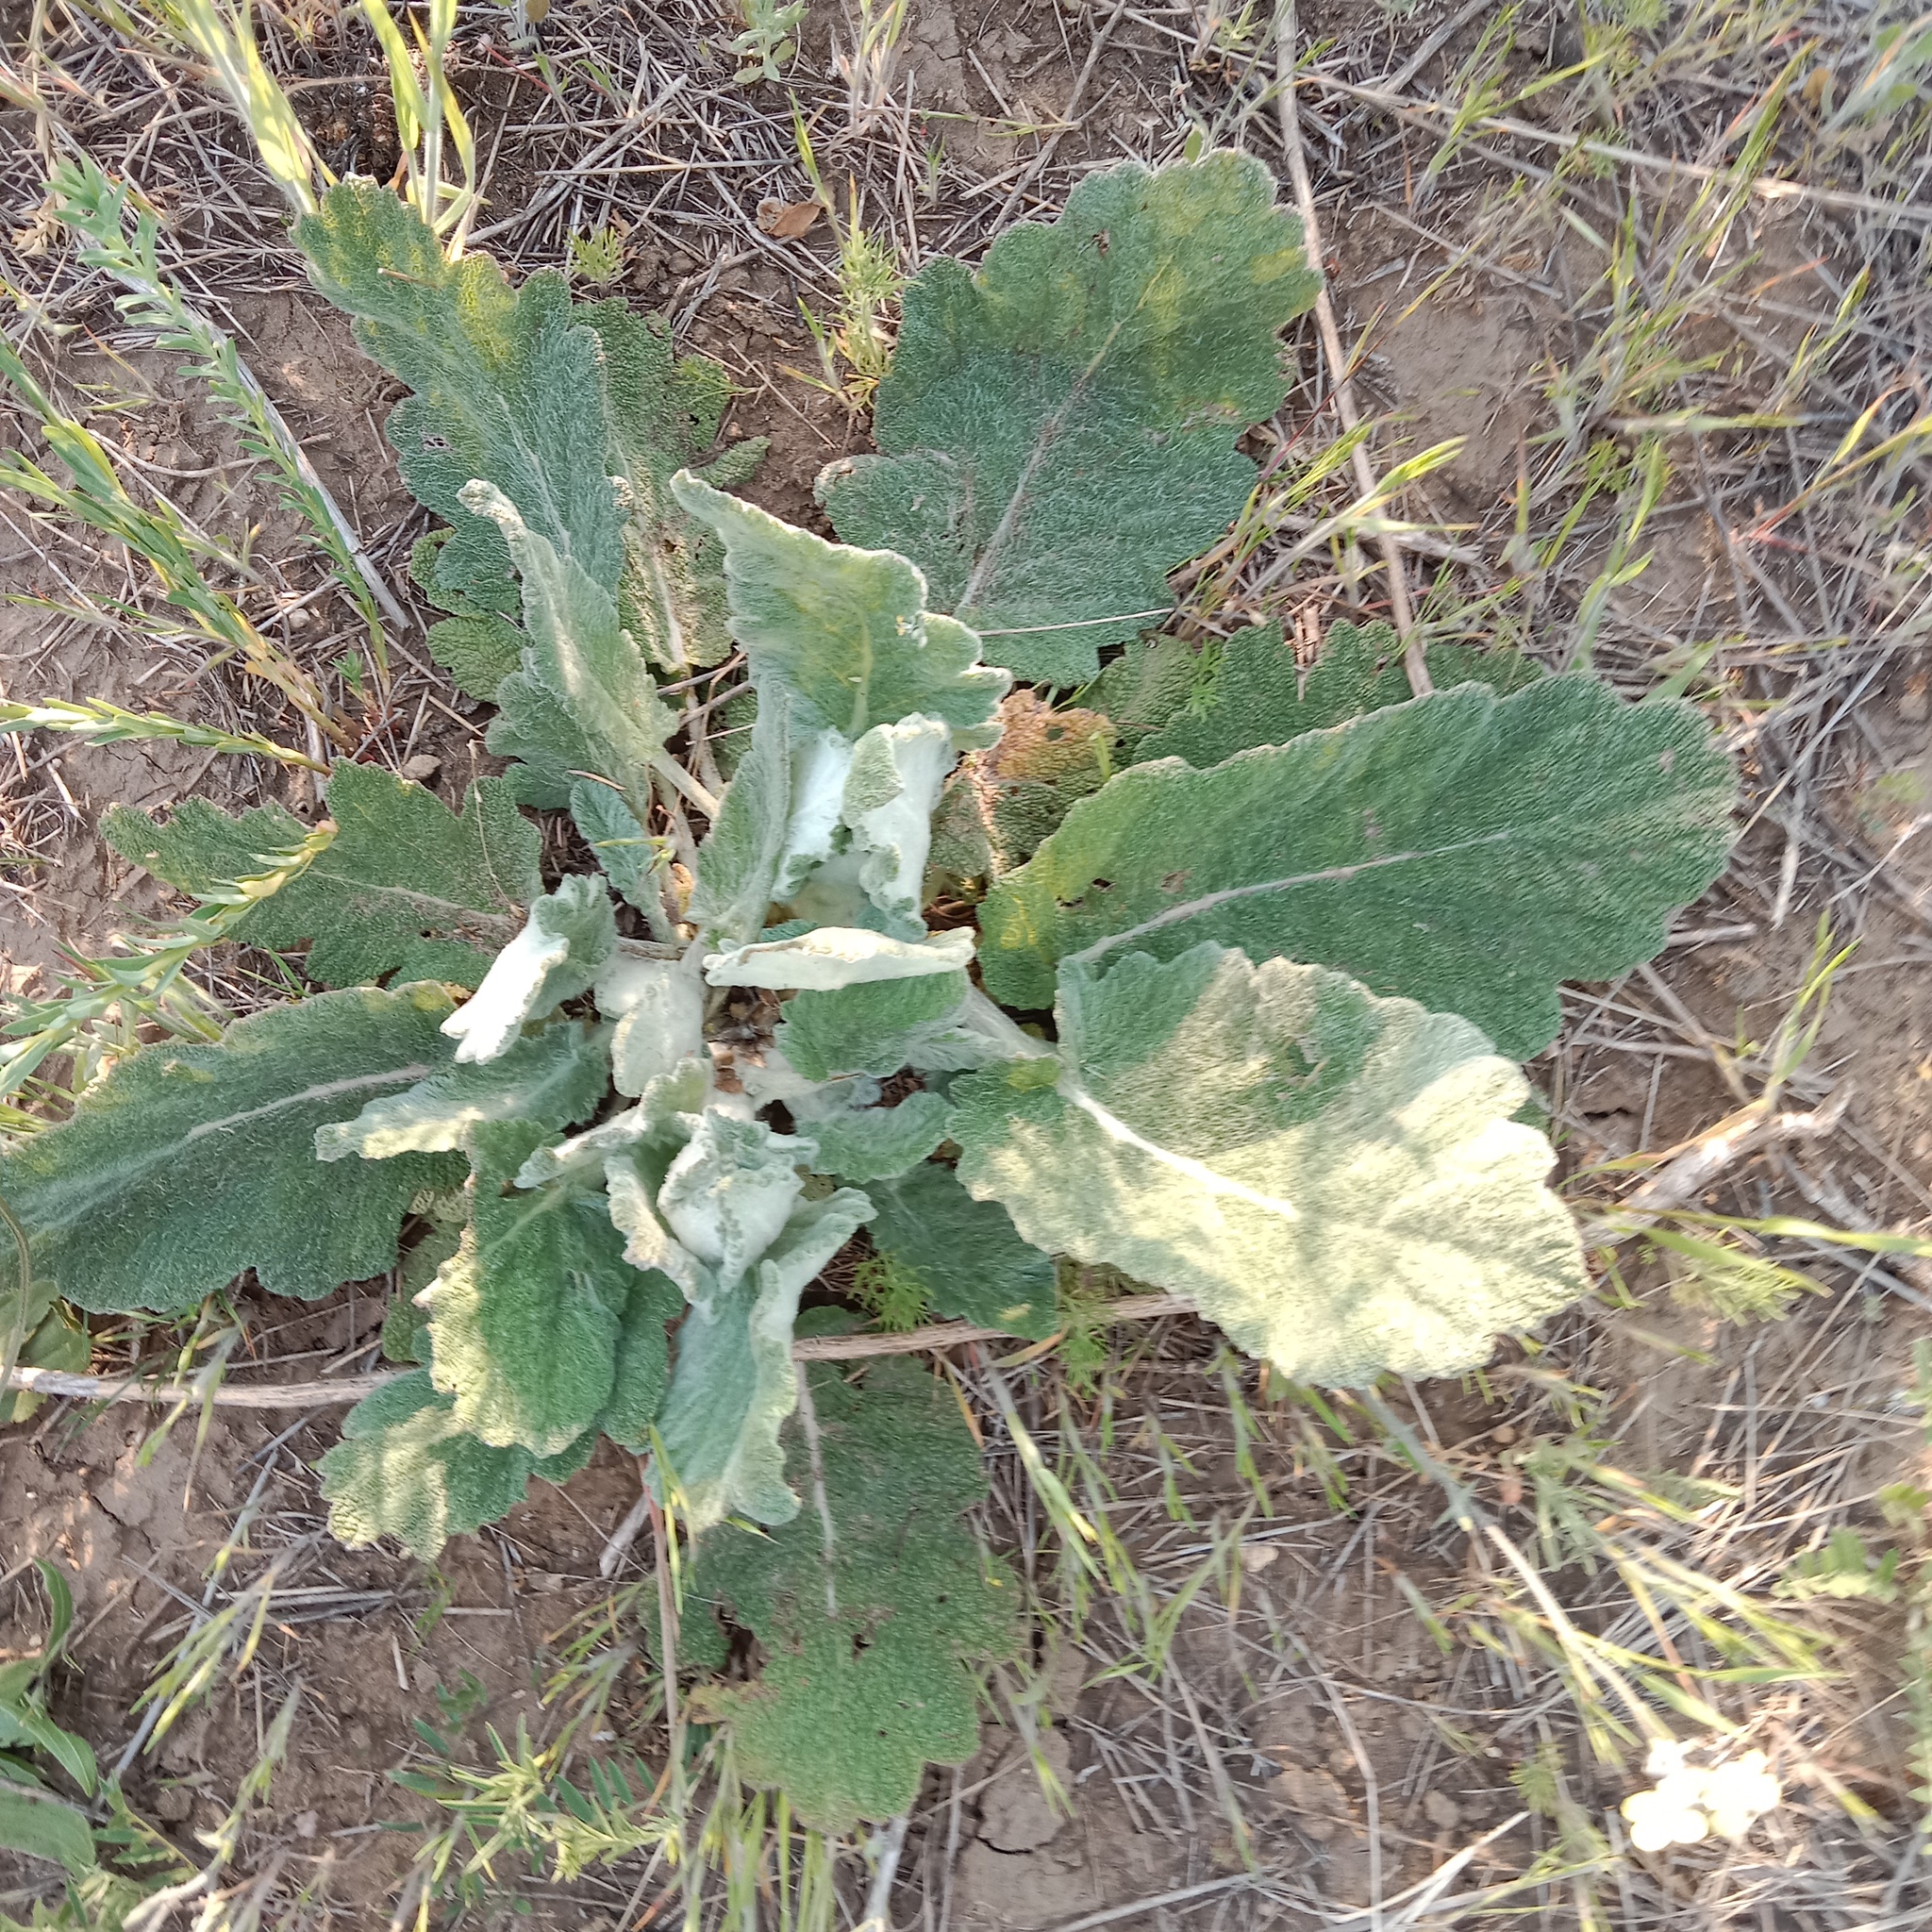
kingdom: Plantae
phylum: Tracheophyta
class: Magnoliopsida
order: Lamiales
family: Lamiaceae
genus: Salvia
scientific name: Salvia aethiopis
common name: Mediterranean sage
